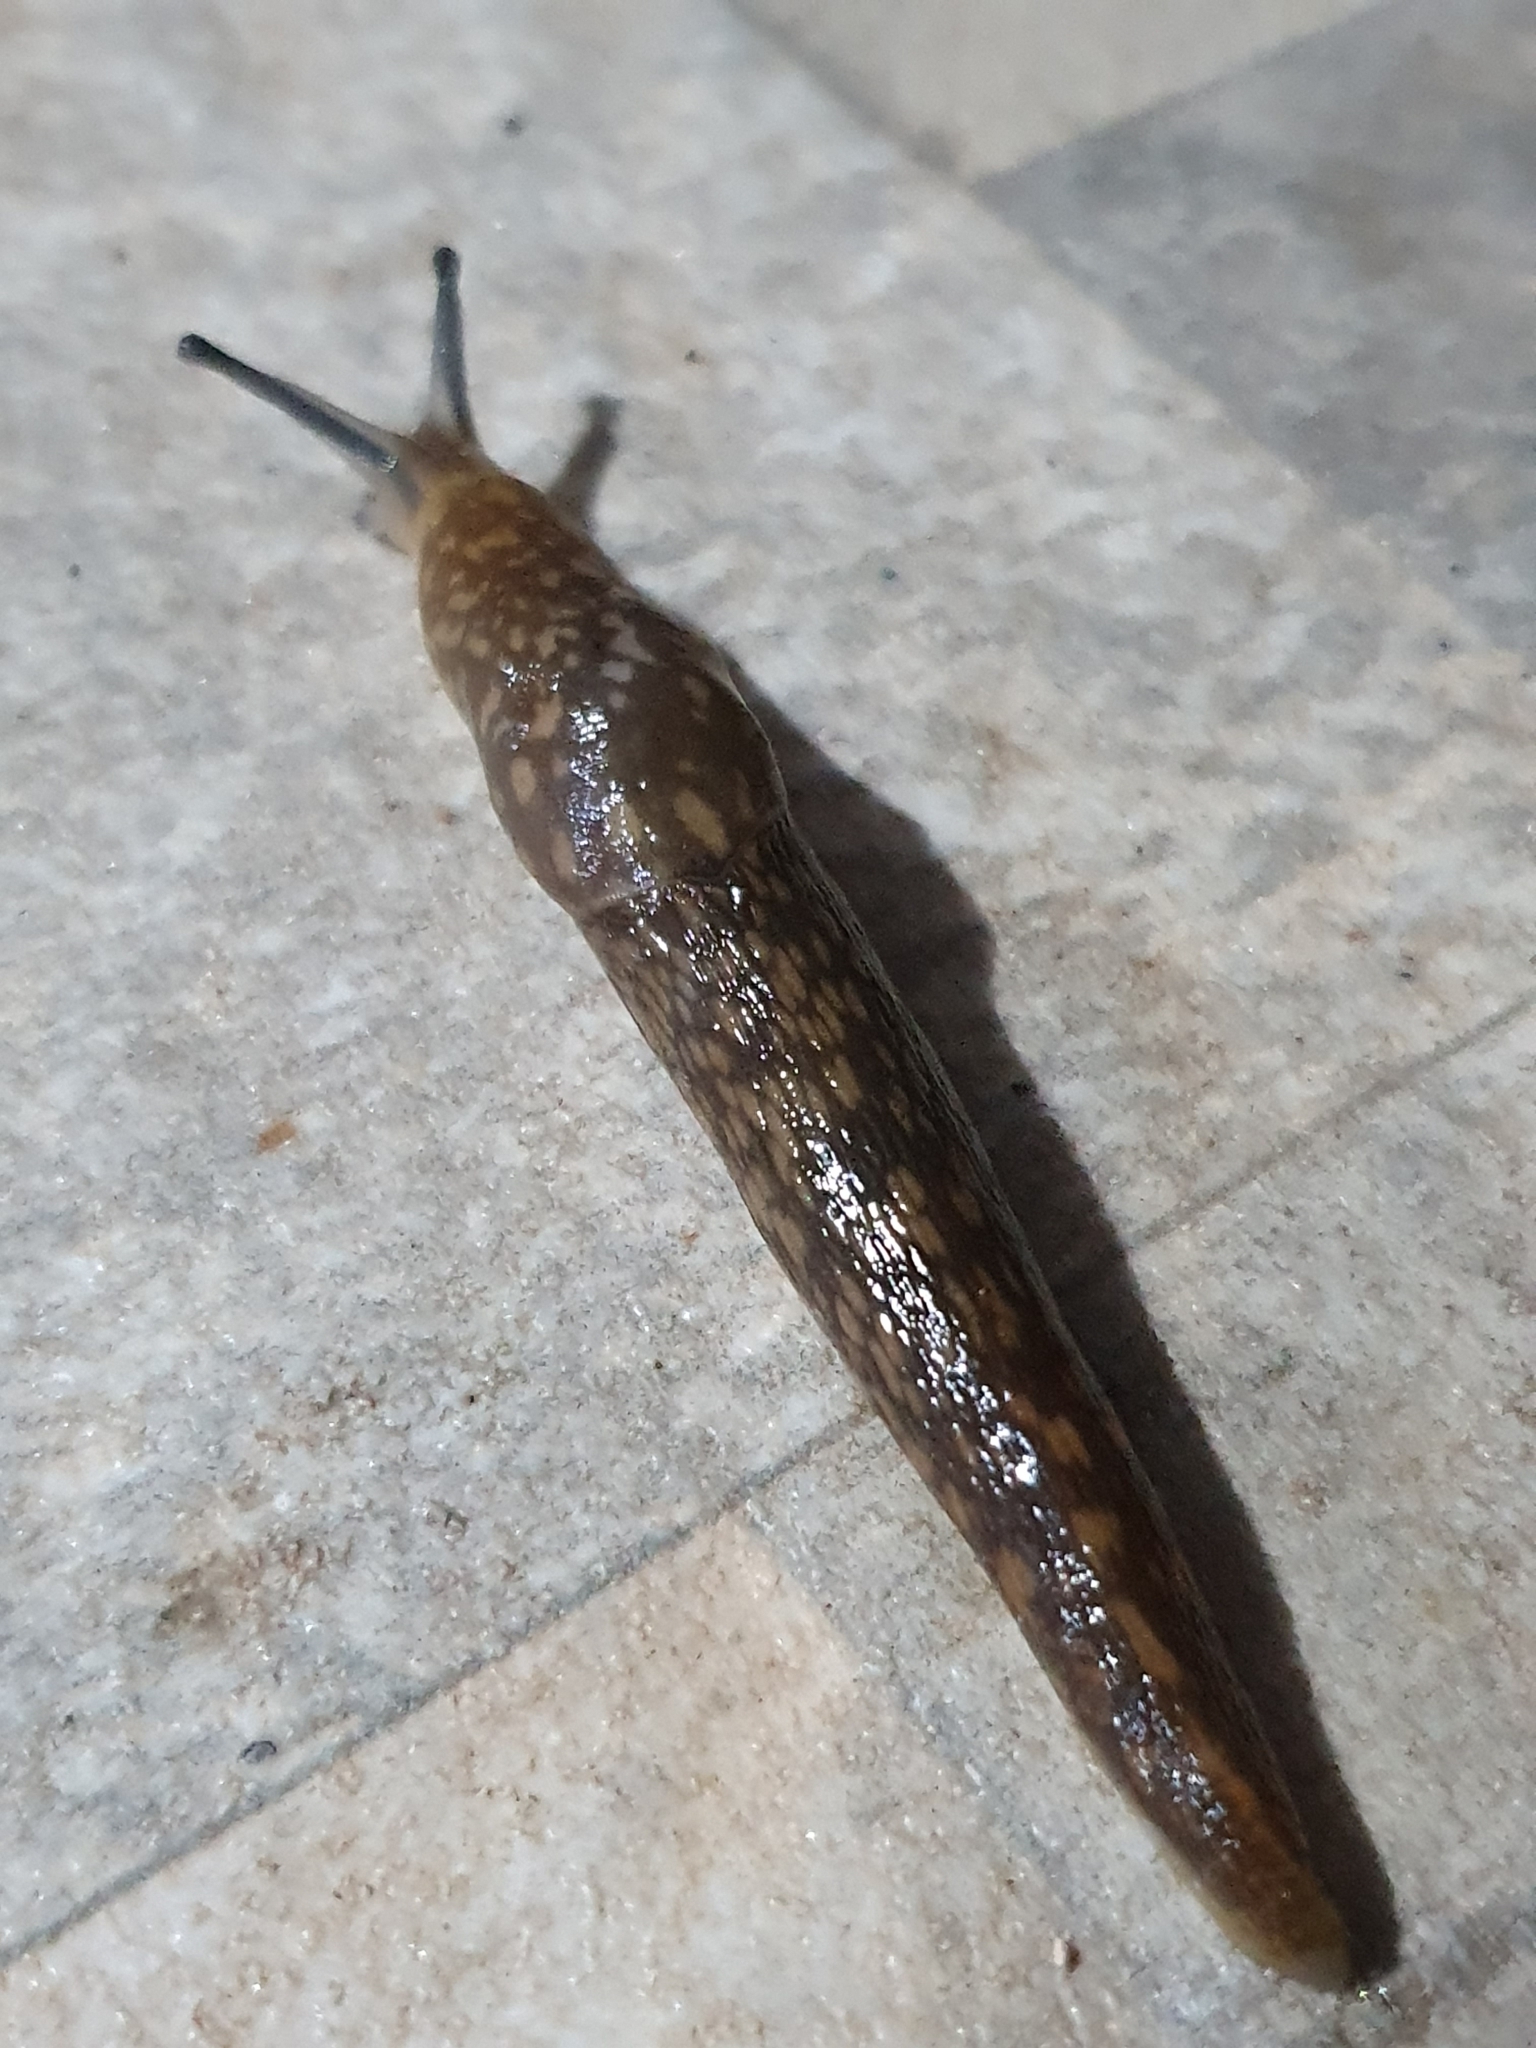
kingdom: Animalia
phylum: Mollusca
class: Gastropoda
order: Stylommatophora
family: Limacidae
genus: Limacus
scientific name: Limacus flavus
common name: Yellow gardenslug
